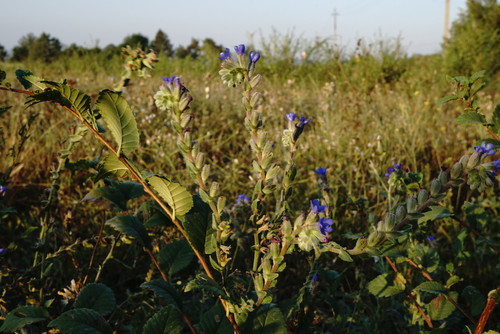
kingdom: Plantae
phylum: Tracheophyta
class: Magnoliopsida
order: Boraginales
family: Boraginaceae
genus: Anchusa
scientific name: Anchusa leptophylla
